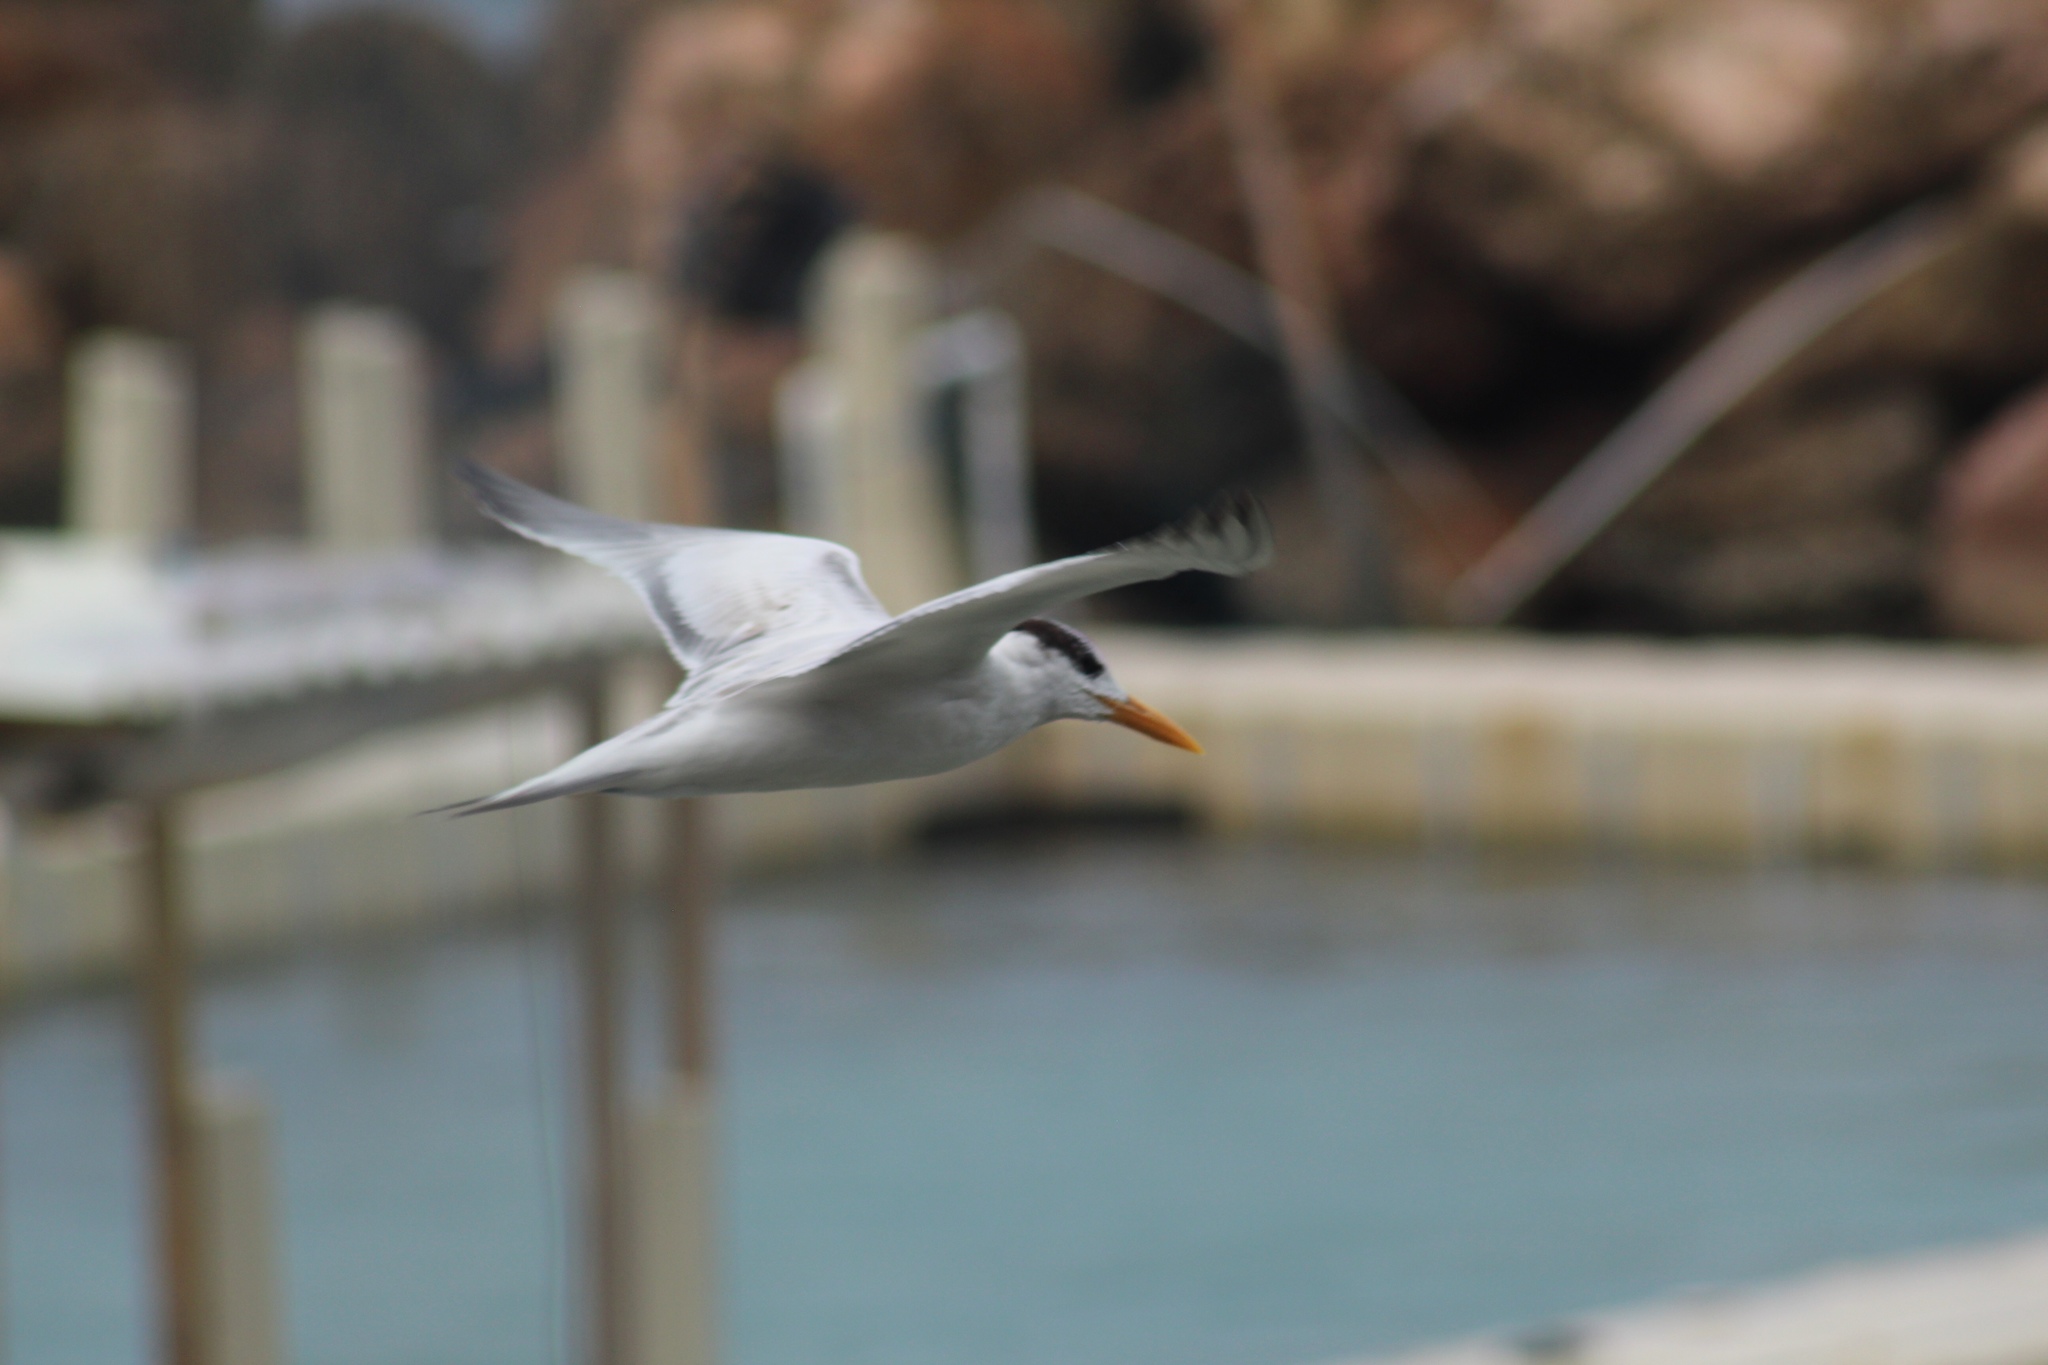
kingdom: Animalia
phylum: Chordata
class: Aves
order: Charadriiformes
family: Laridae
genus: Thalasseus
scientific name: Thalasseus maximus
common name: Royal tern
